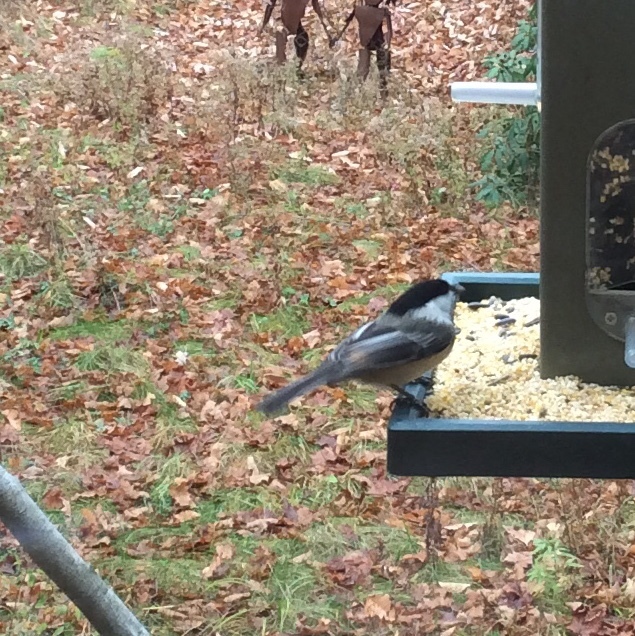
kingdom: Animalia
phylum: Chordata
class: Aves
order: Passeriformes
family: Paridae
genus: Poecile
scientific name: Poecile atricapillus
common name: Black-capped chickadee
